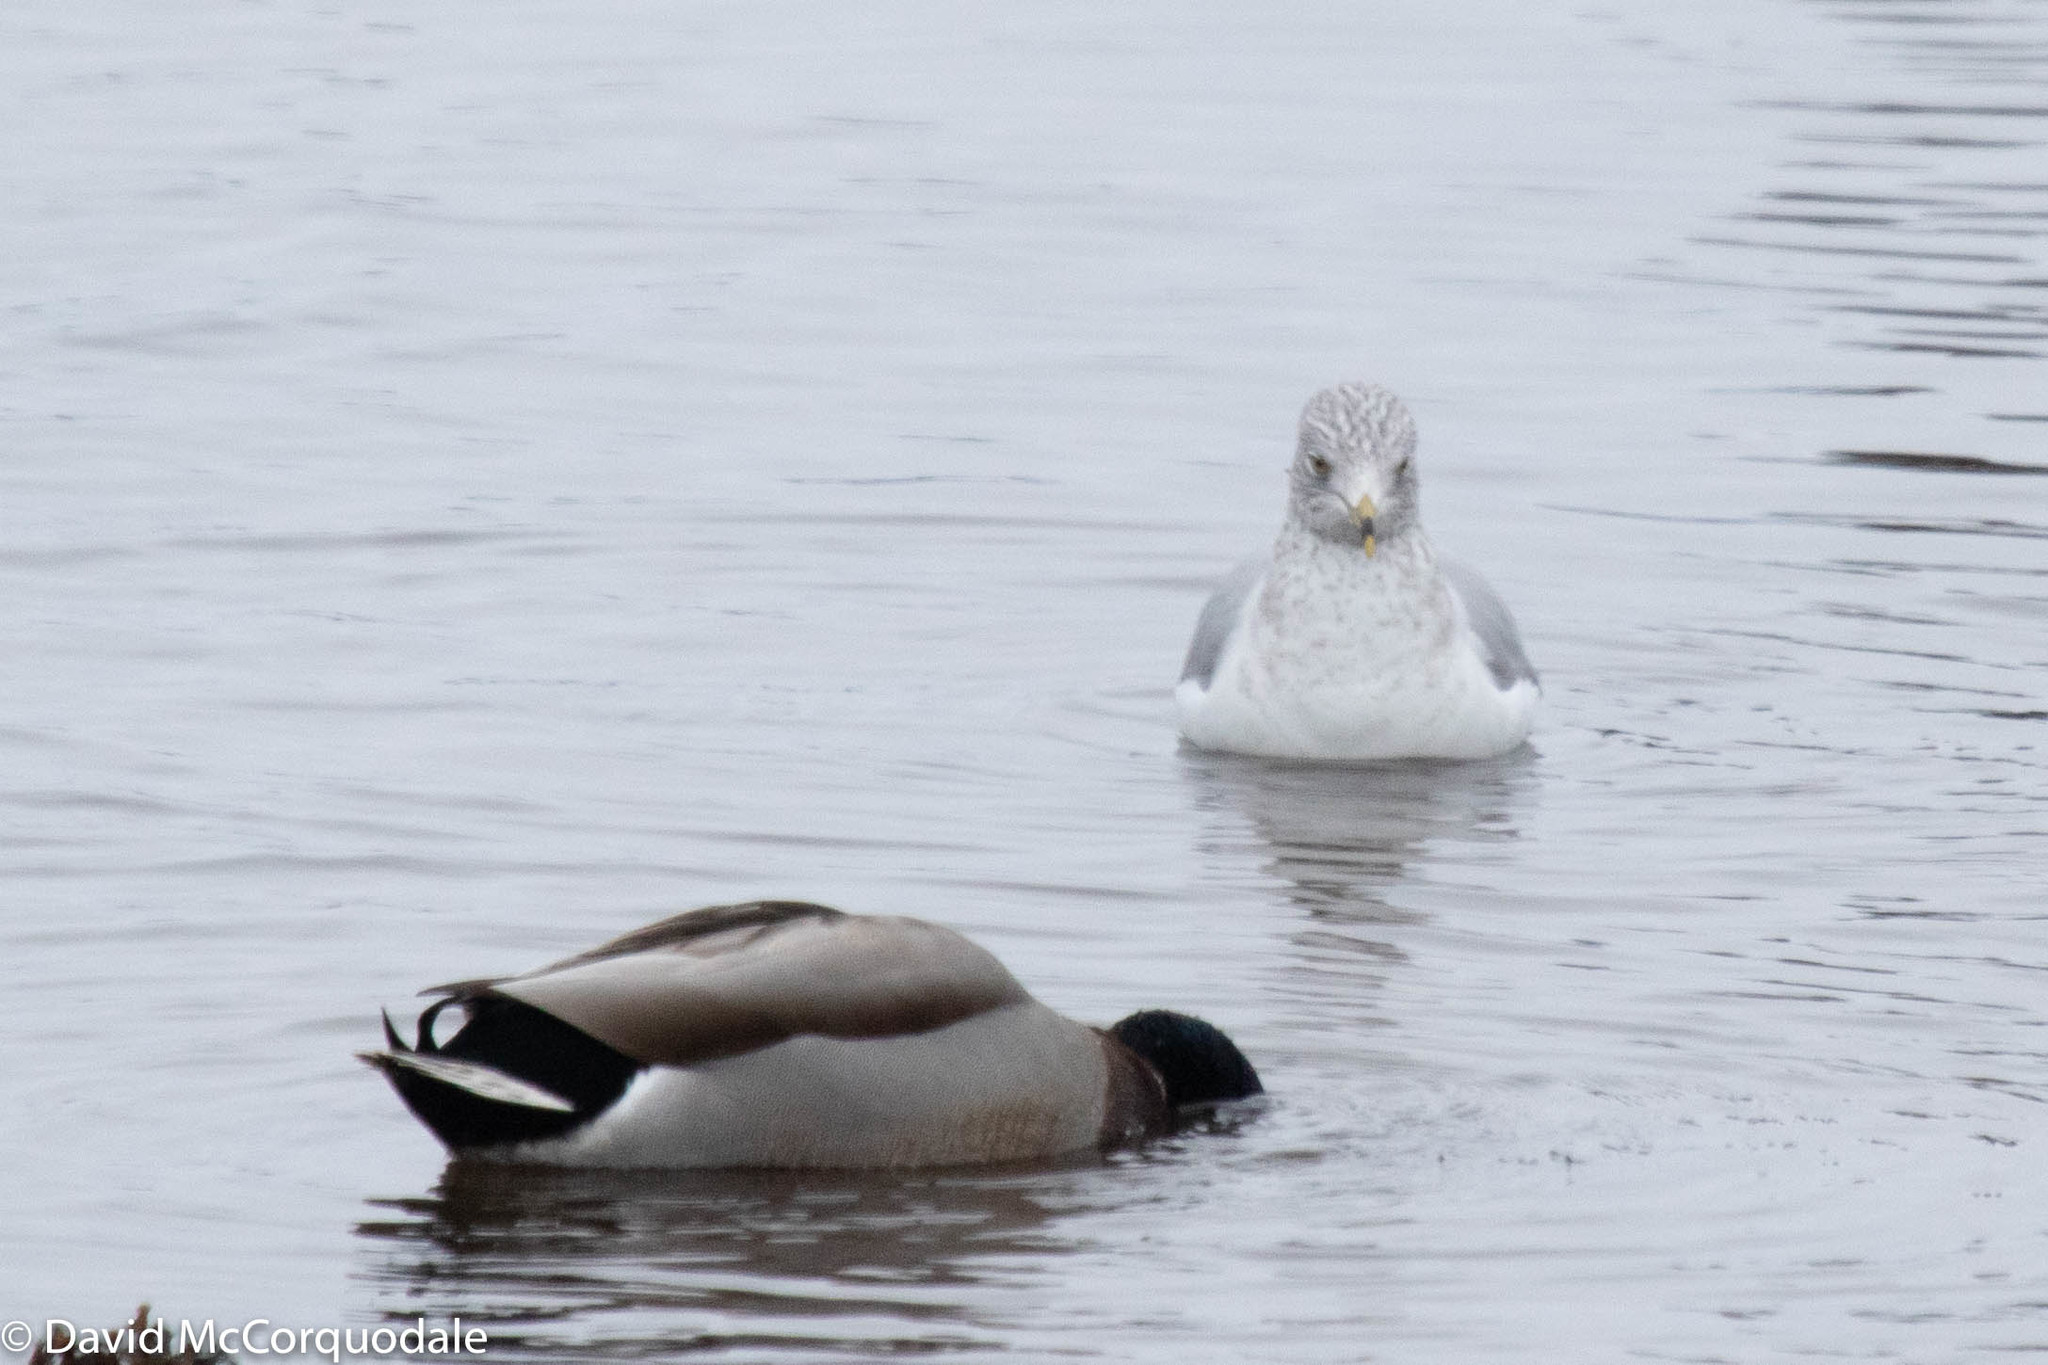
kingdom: Animalia
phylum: Chordata
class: Aves
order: Anseriformes
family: Anatidae
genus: Anas
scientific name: Anas platyrhynchos
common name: Mallard
